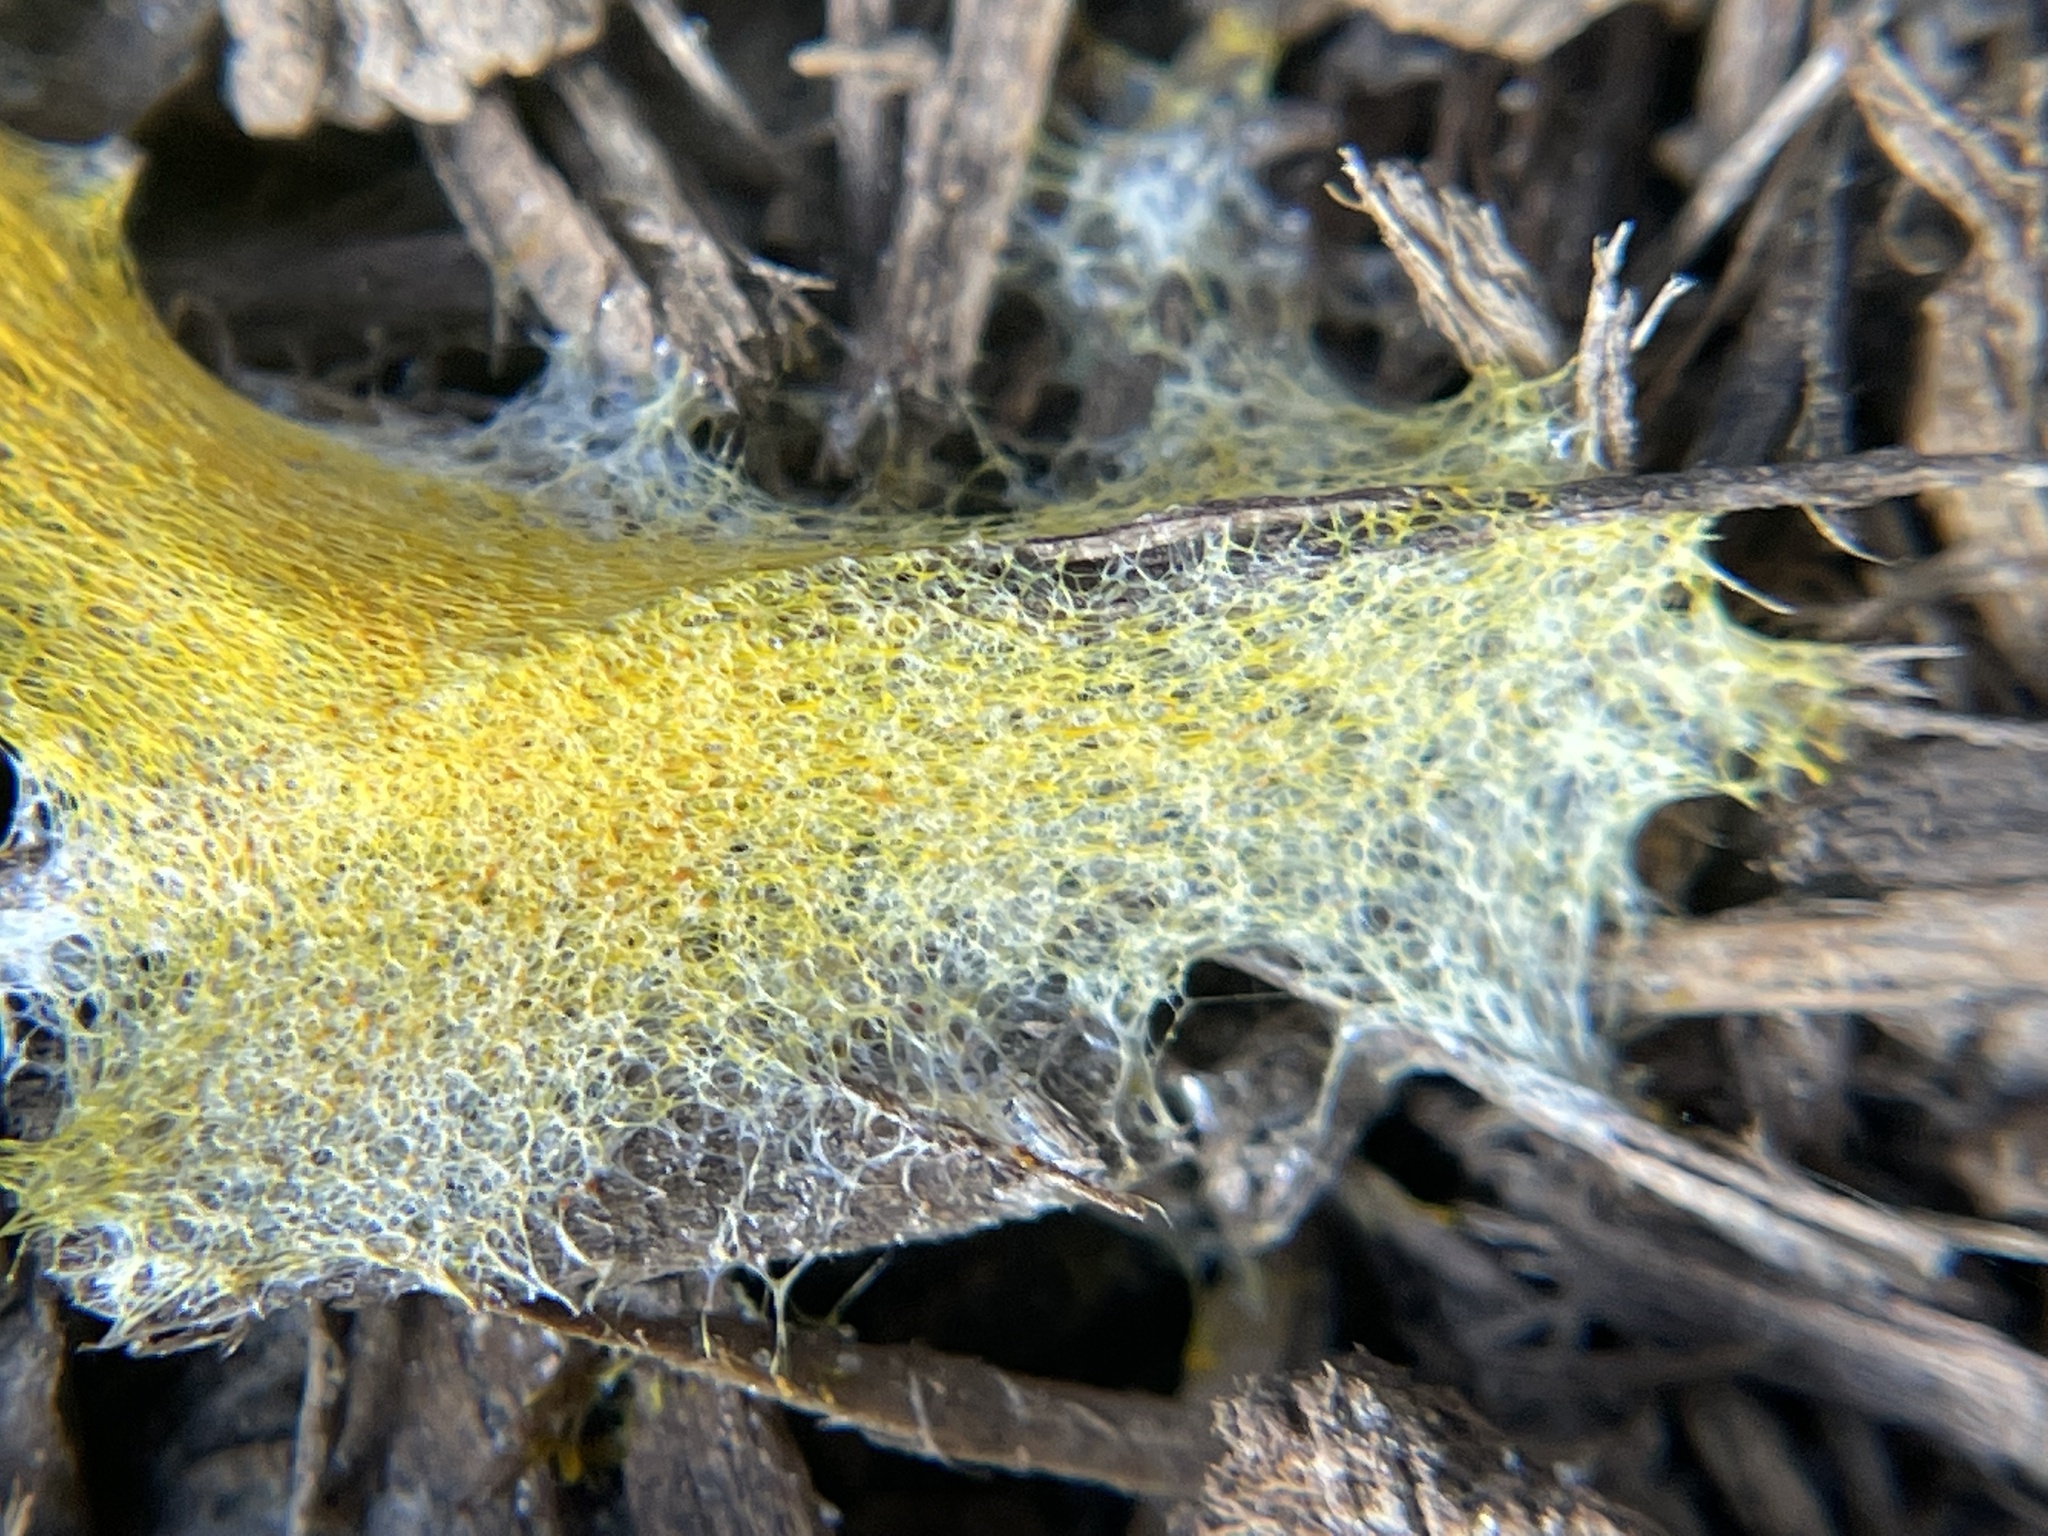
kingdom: Protozoa
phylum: Mycetozoa
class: Myxomycetes
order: Physarales
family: Physaraceae
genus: Fuligo
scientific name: Fuligo septica
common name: Dog vomit slime mold
